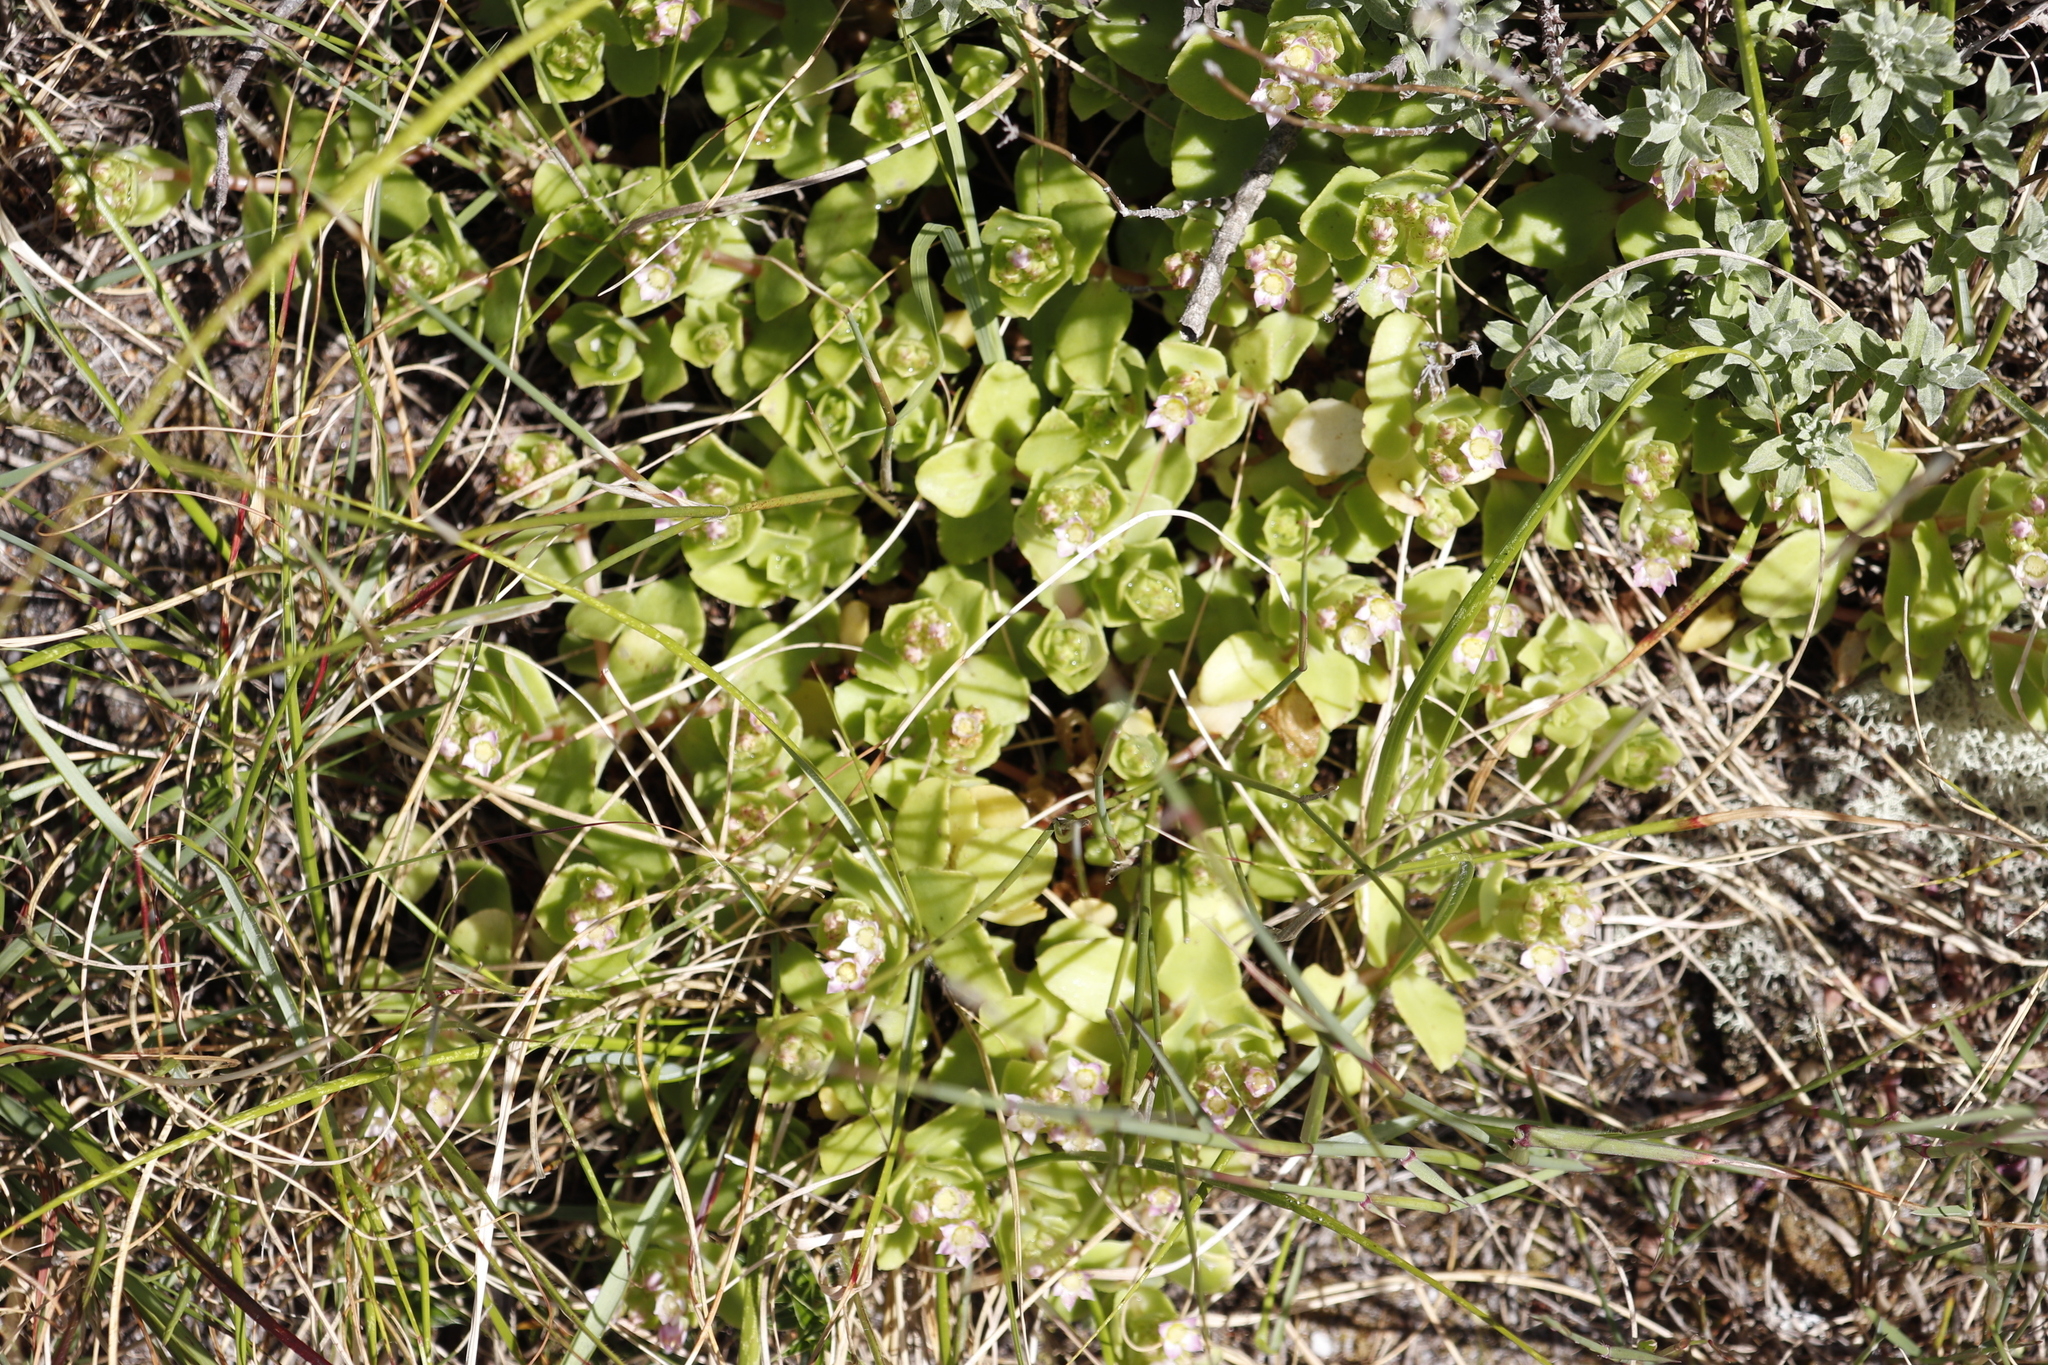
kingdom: Plantae
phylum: Tracheophyta
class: Magnoliopsida
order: Saxifragales
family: Crassulaceae
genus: Crassula
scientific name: Crassula pellucida
